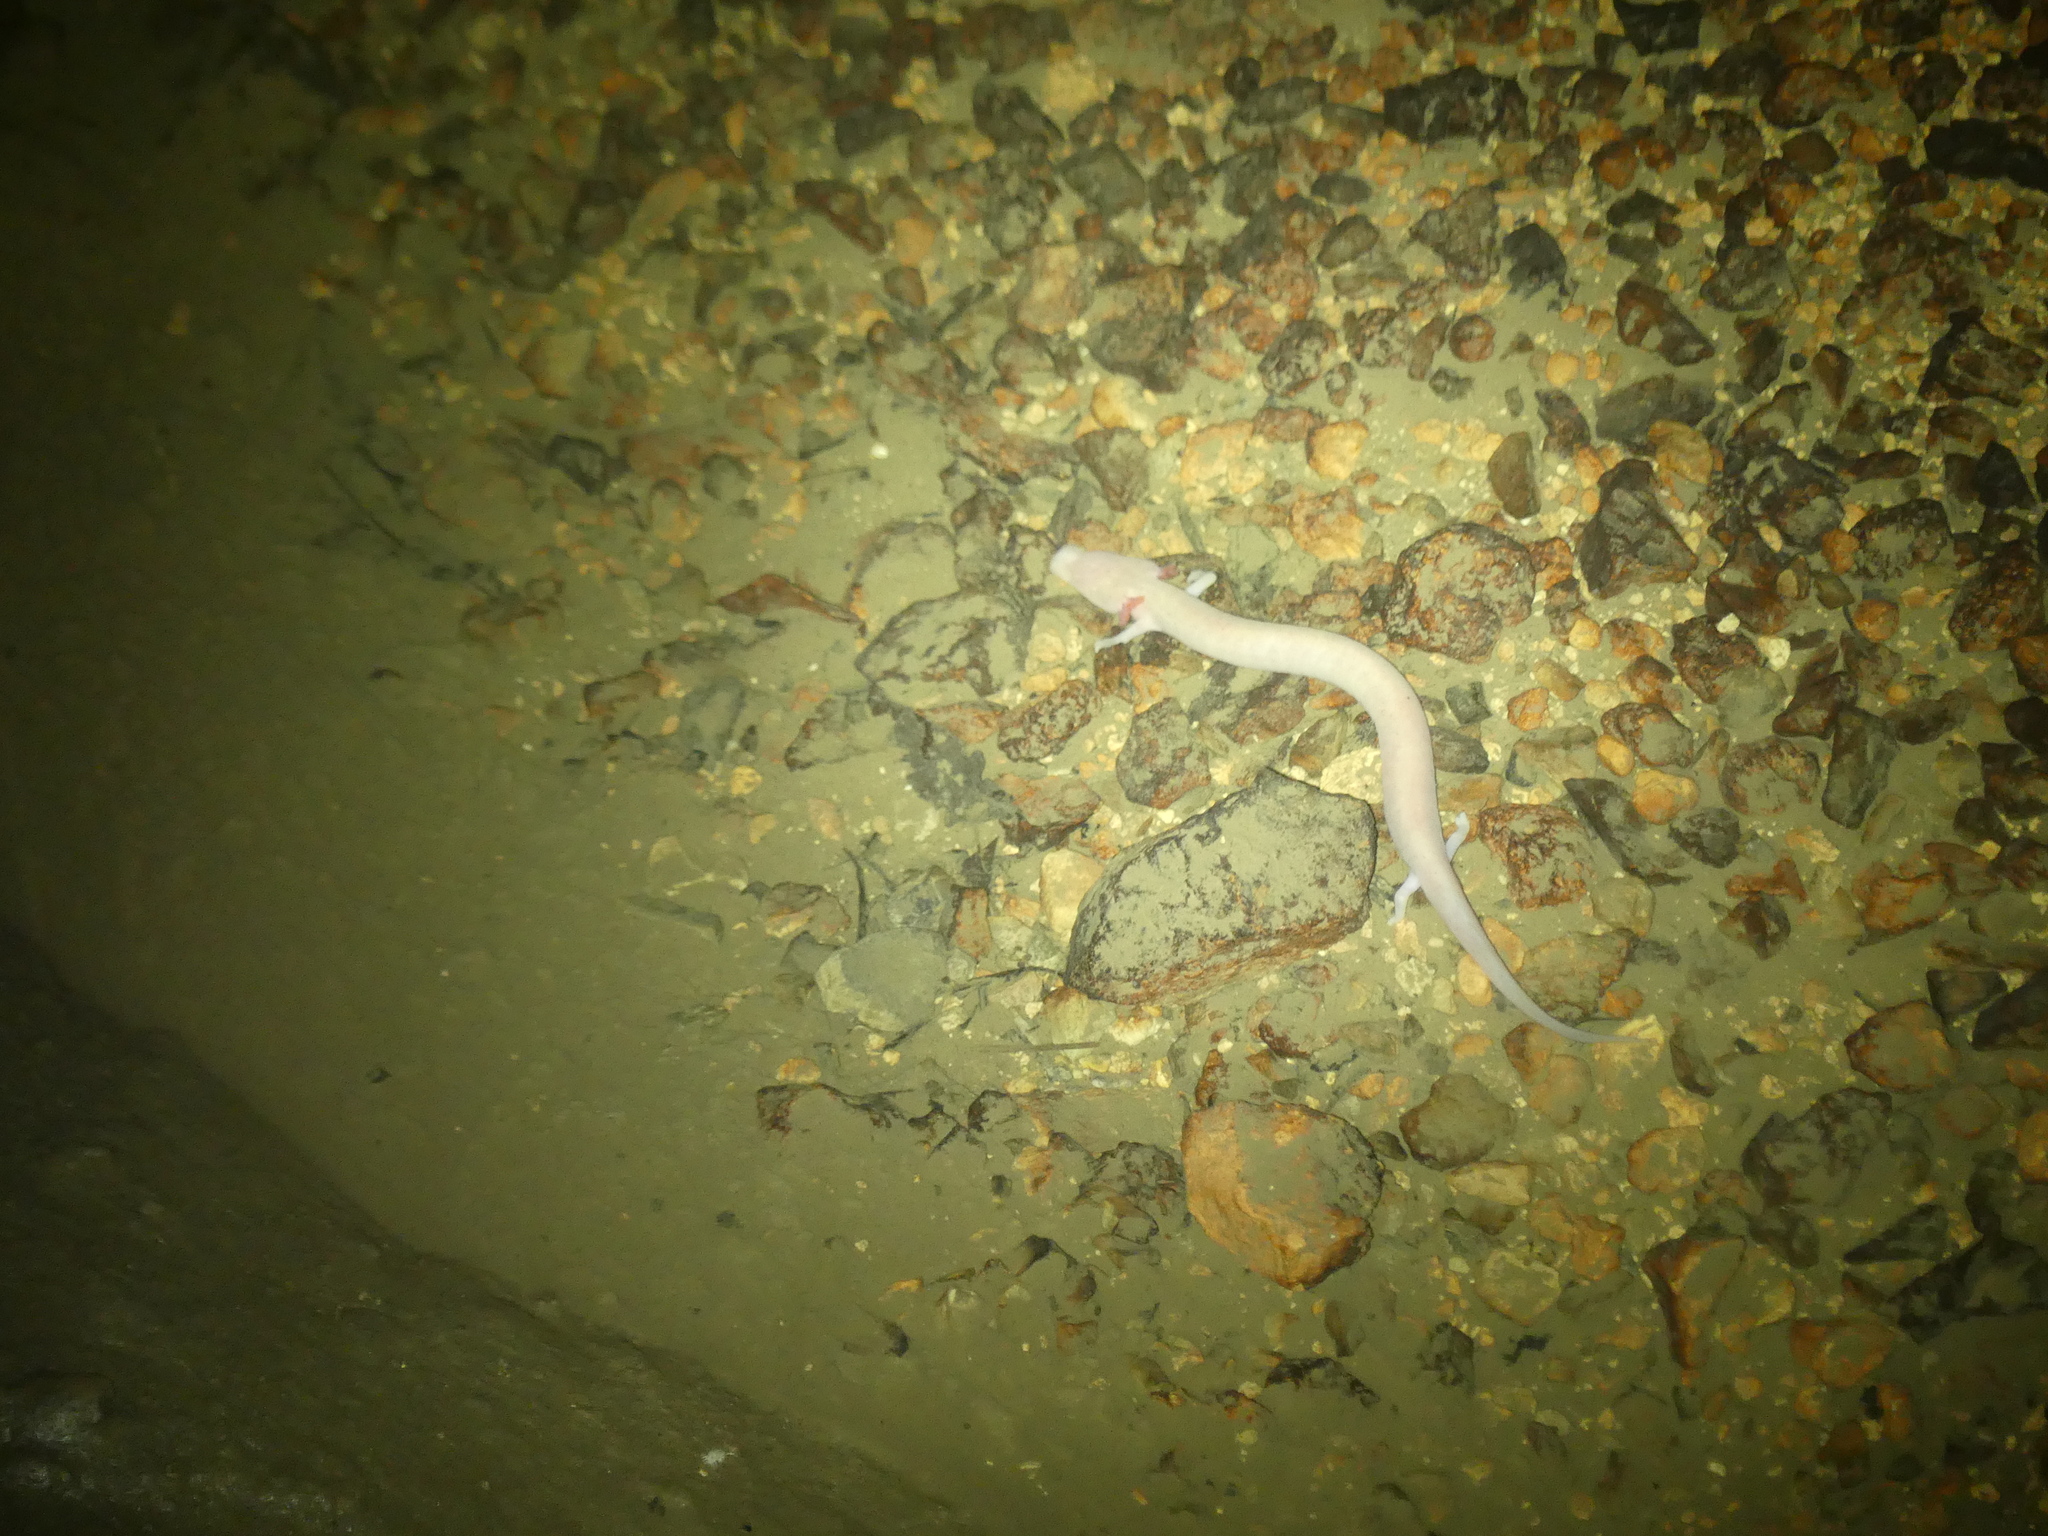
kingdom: Animalia
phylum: Chordata
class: Amphibia
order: Caudata
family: Proteidae
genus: Proteus
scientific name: Proteus anguinus
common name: Olm
